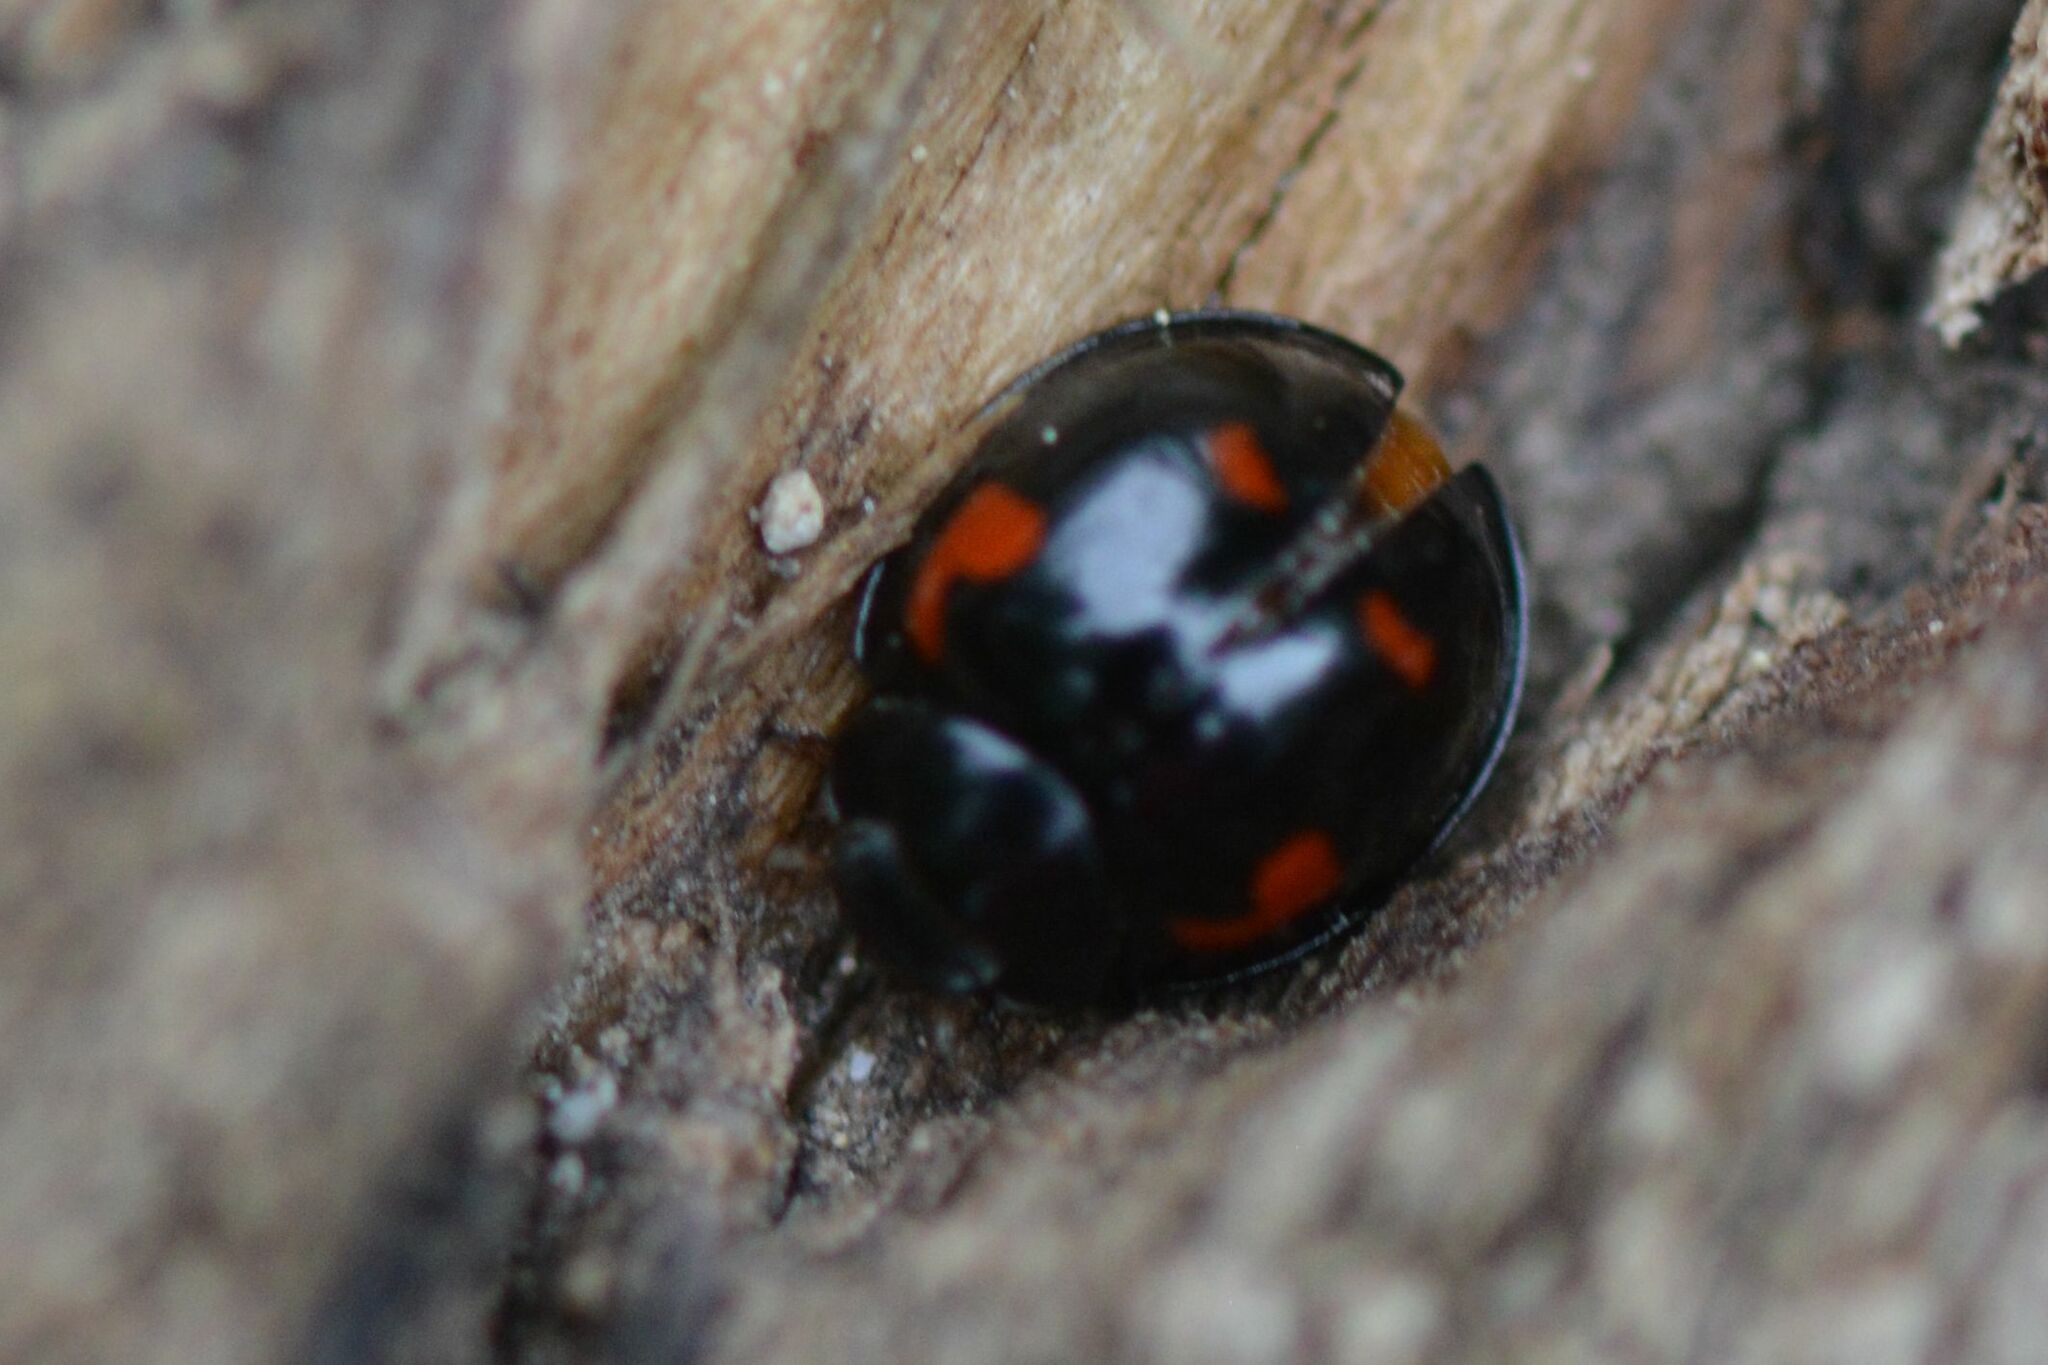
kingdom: Animalia
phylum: Arthropoda
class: Insecta
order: Coleoptera
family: Coccinellidae
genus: Brumus
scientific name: Brumus quadripustulatus
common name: Ladybird beetle
